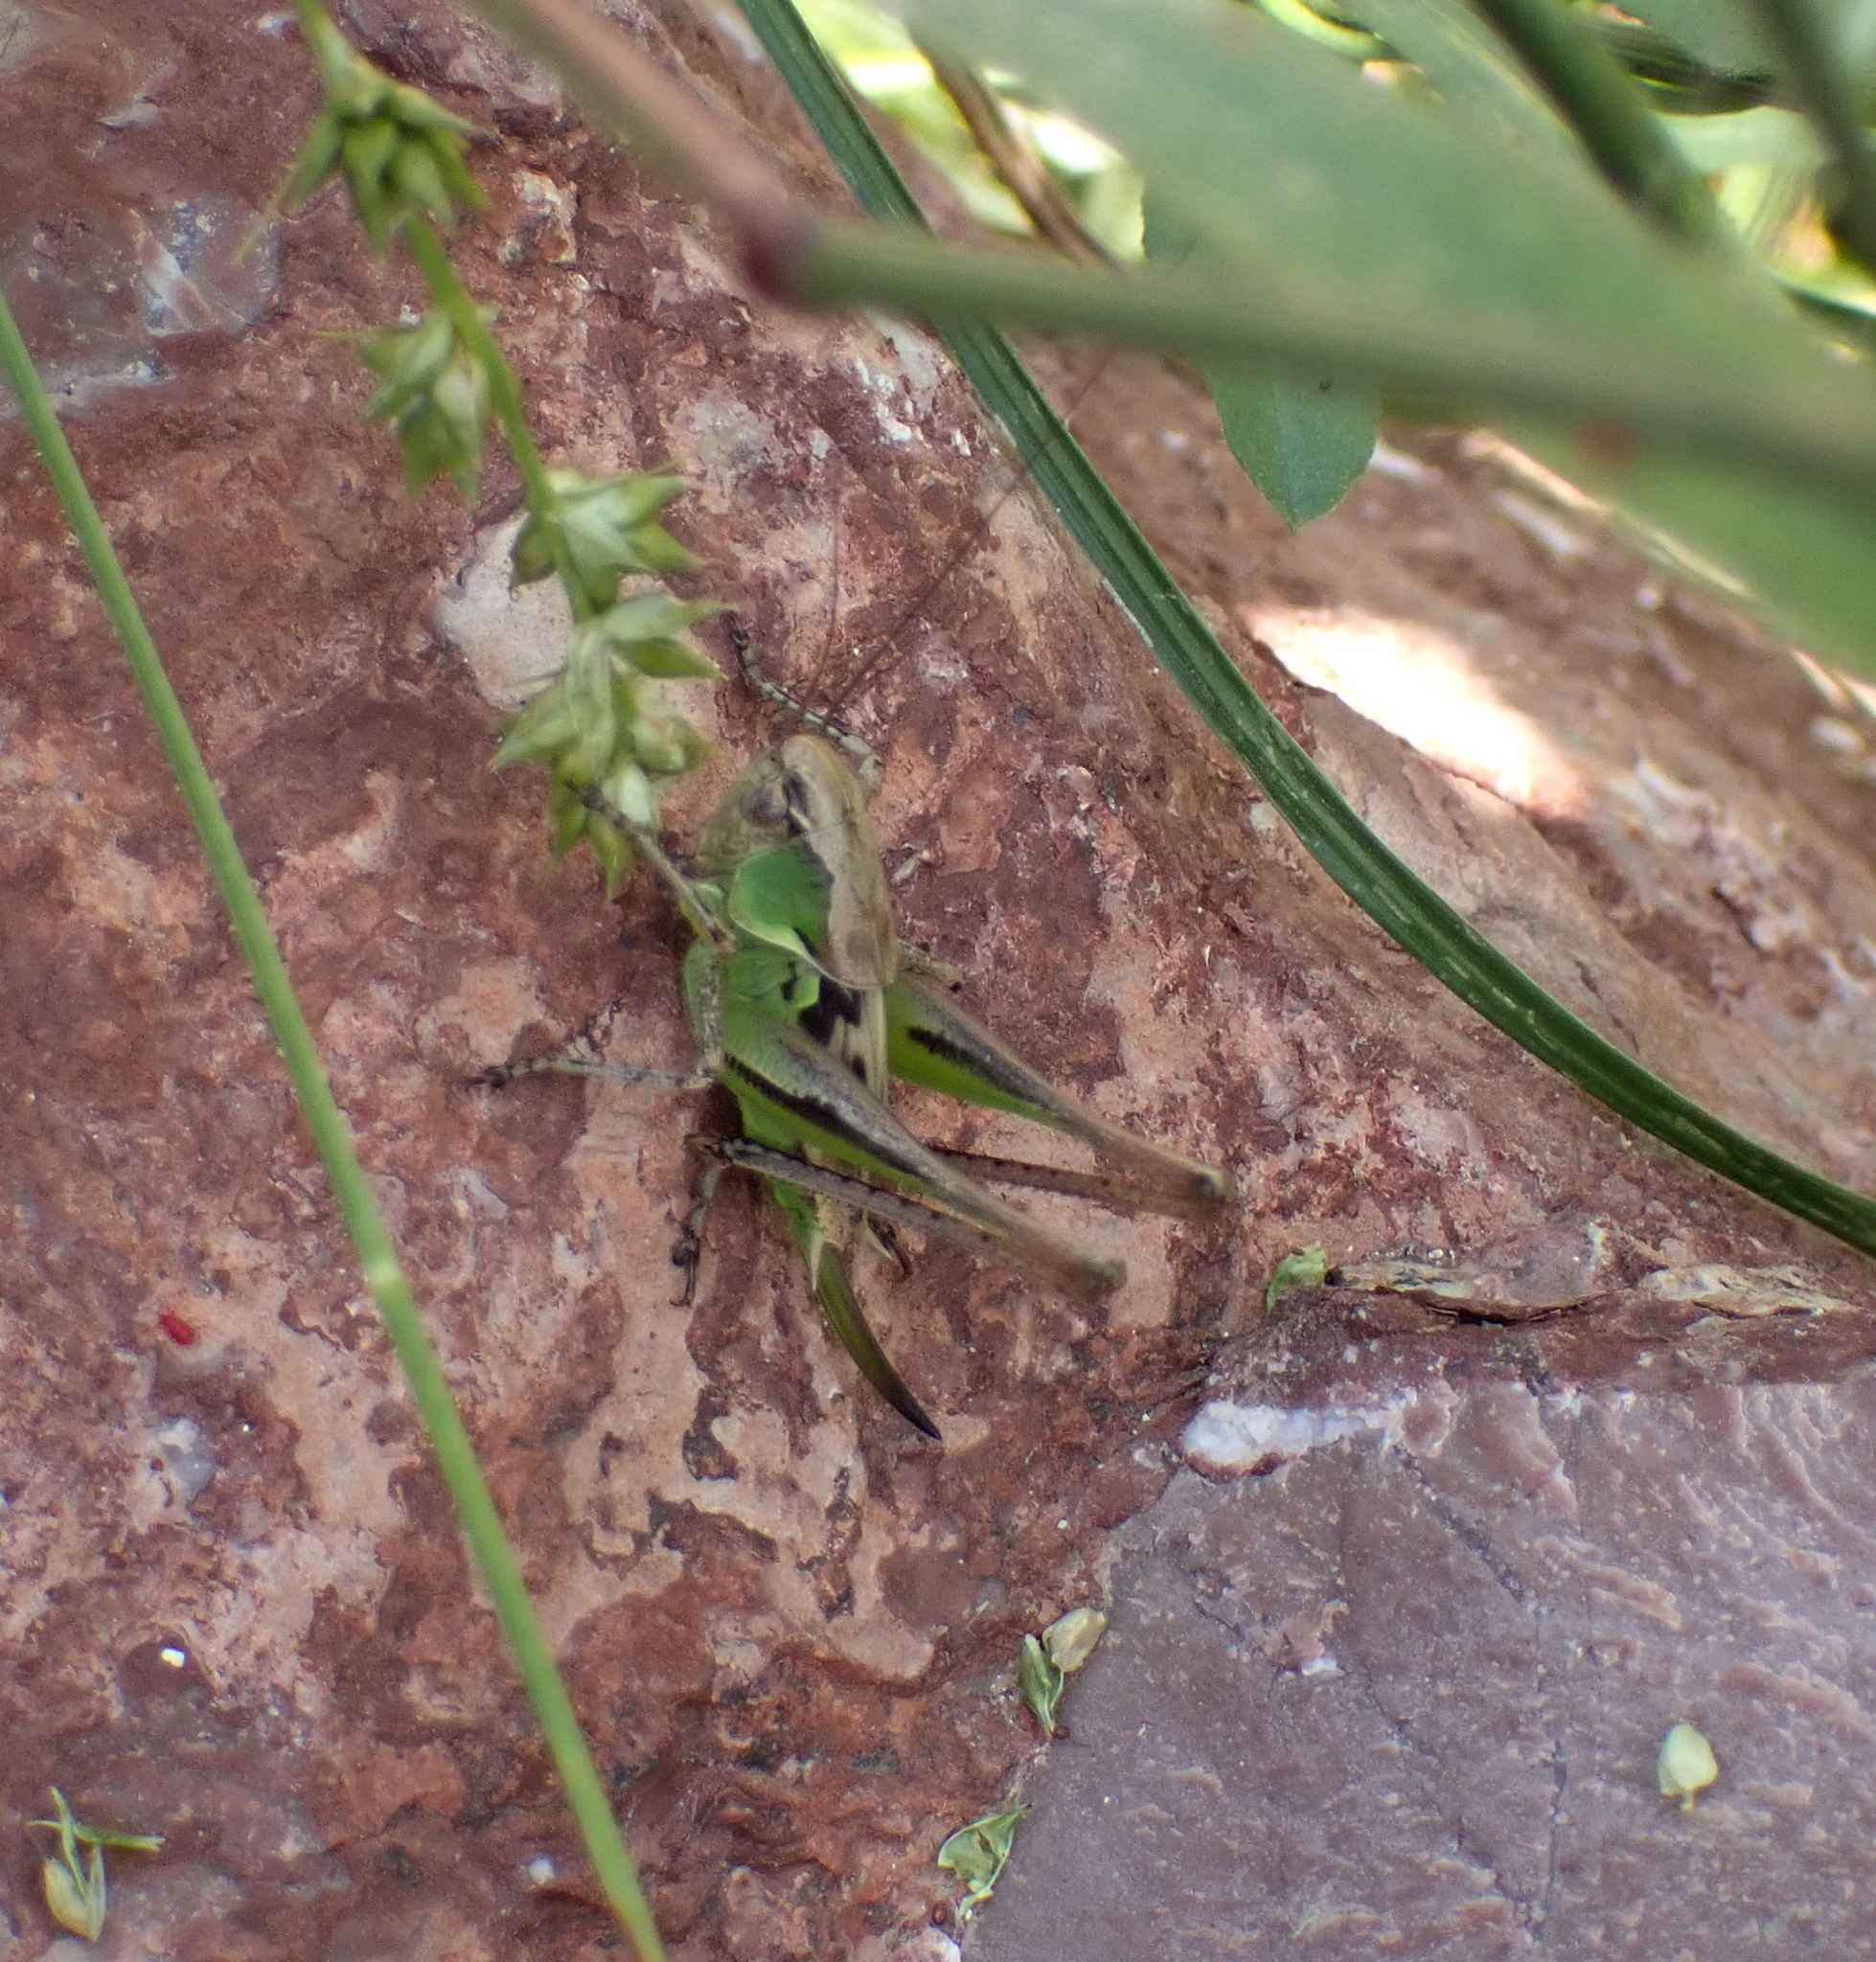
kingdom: Animalia
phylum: Arthropoda
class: Insecta
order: Orthoptera
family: Tettigoniidae
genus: Platycleis
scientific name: Platycleis grisea
